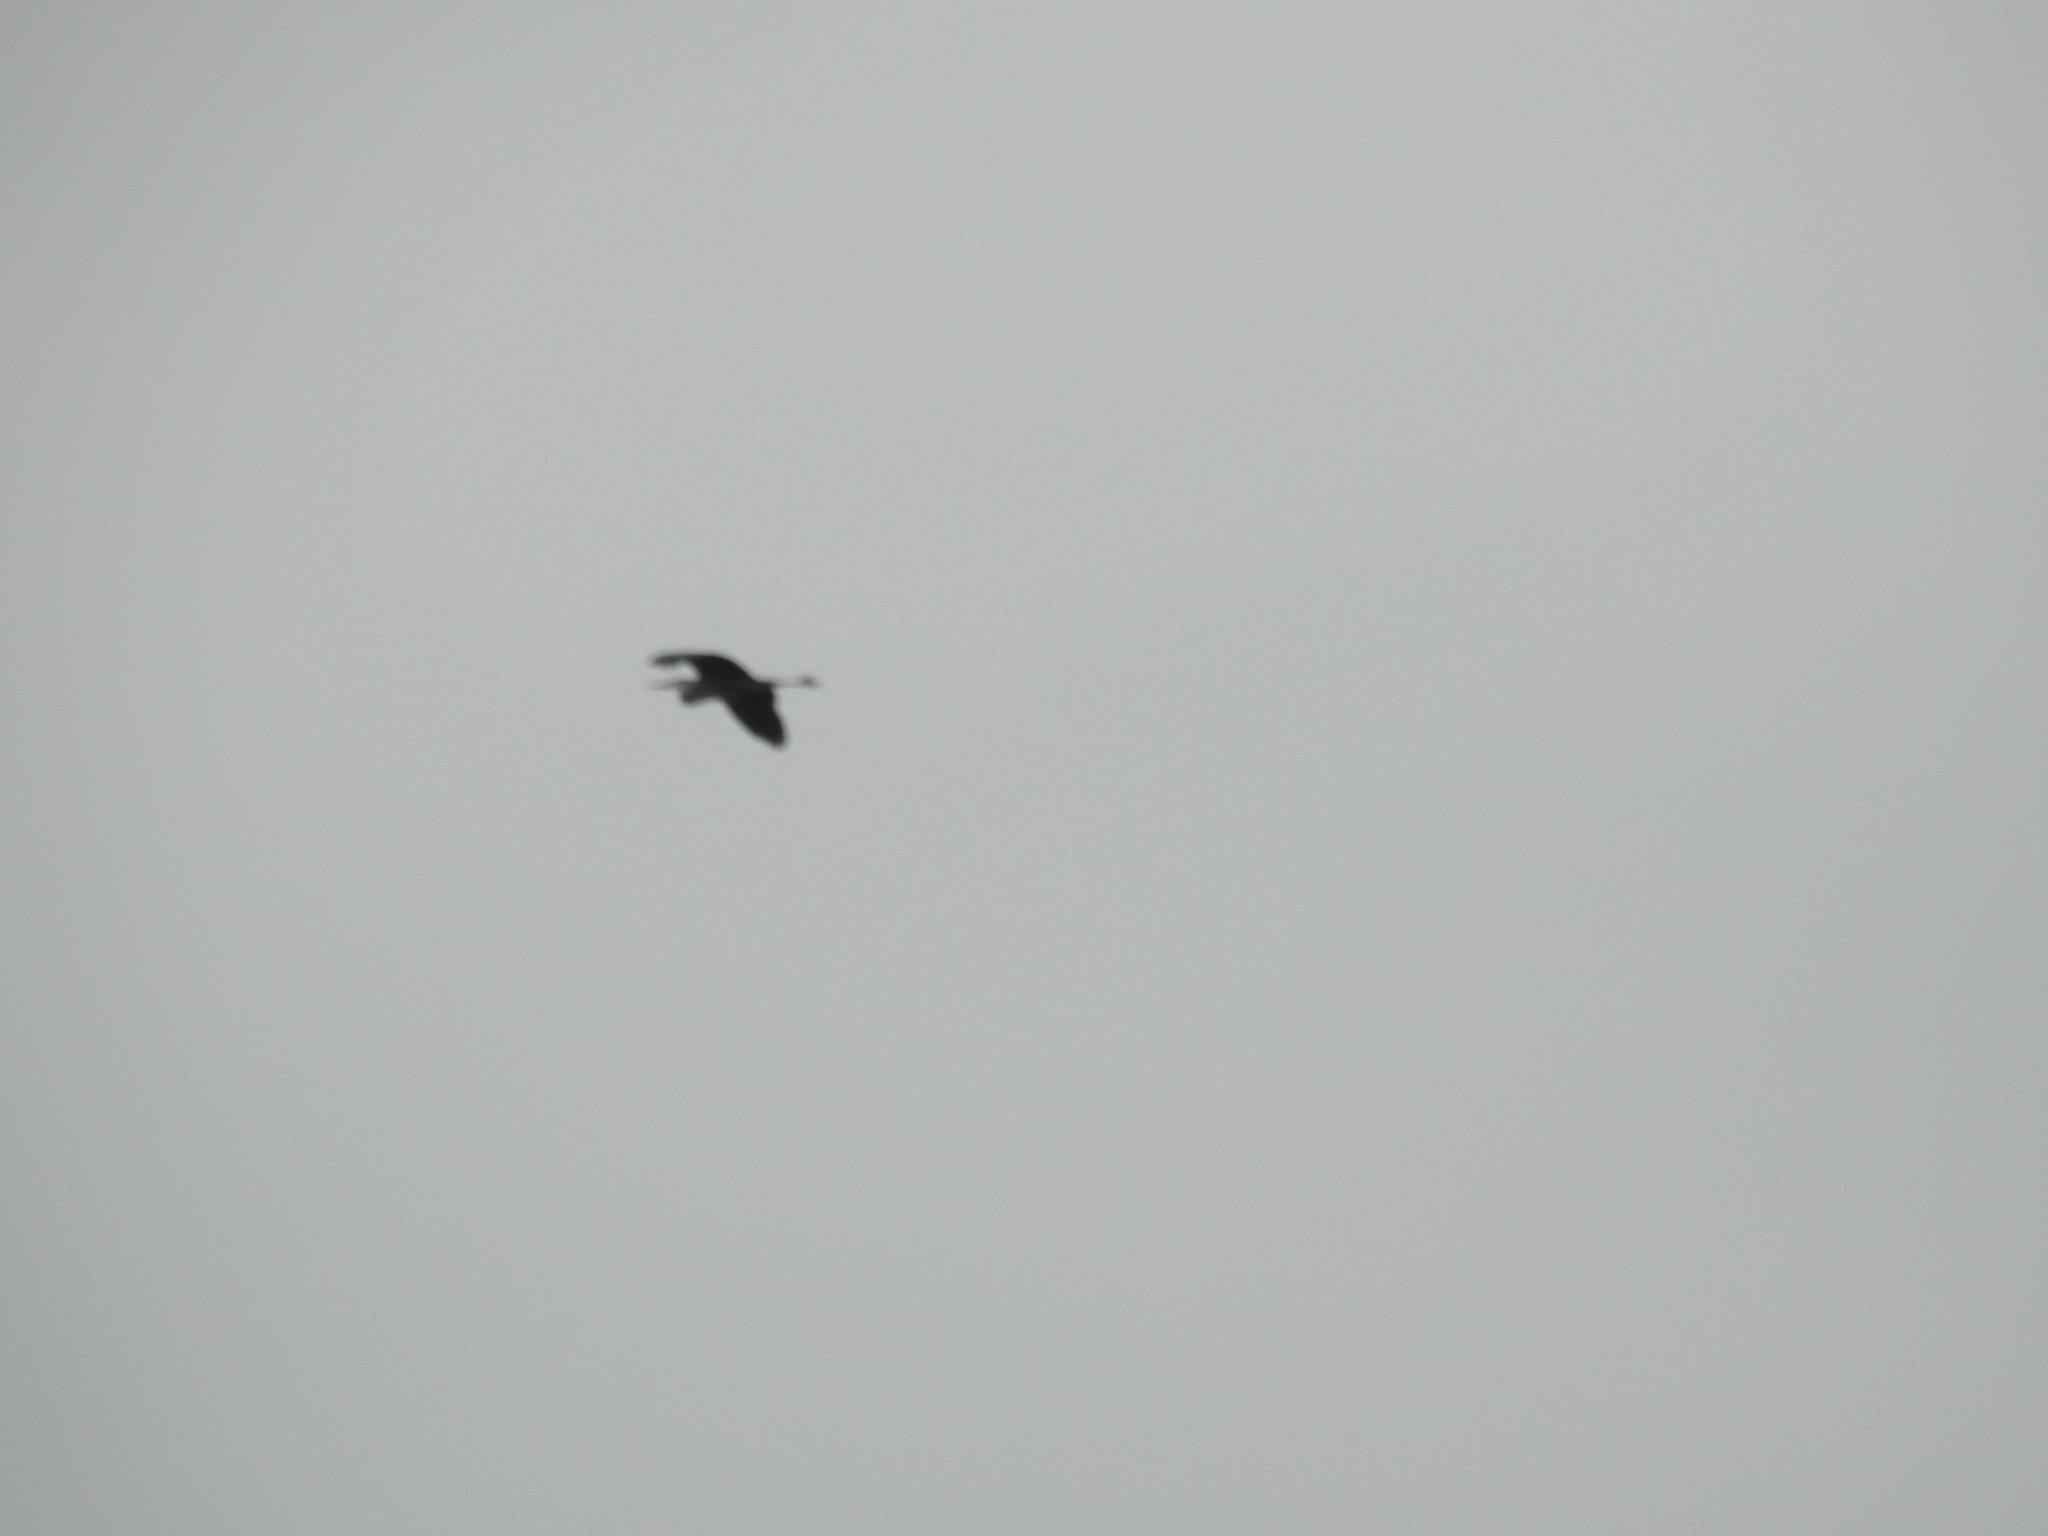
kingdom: Animalia
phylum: Chordata
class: Aves
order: Pelecaniformes
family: Ardeidae
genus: Ardea
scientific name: Ardea herodias
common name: Great blue heron
